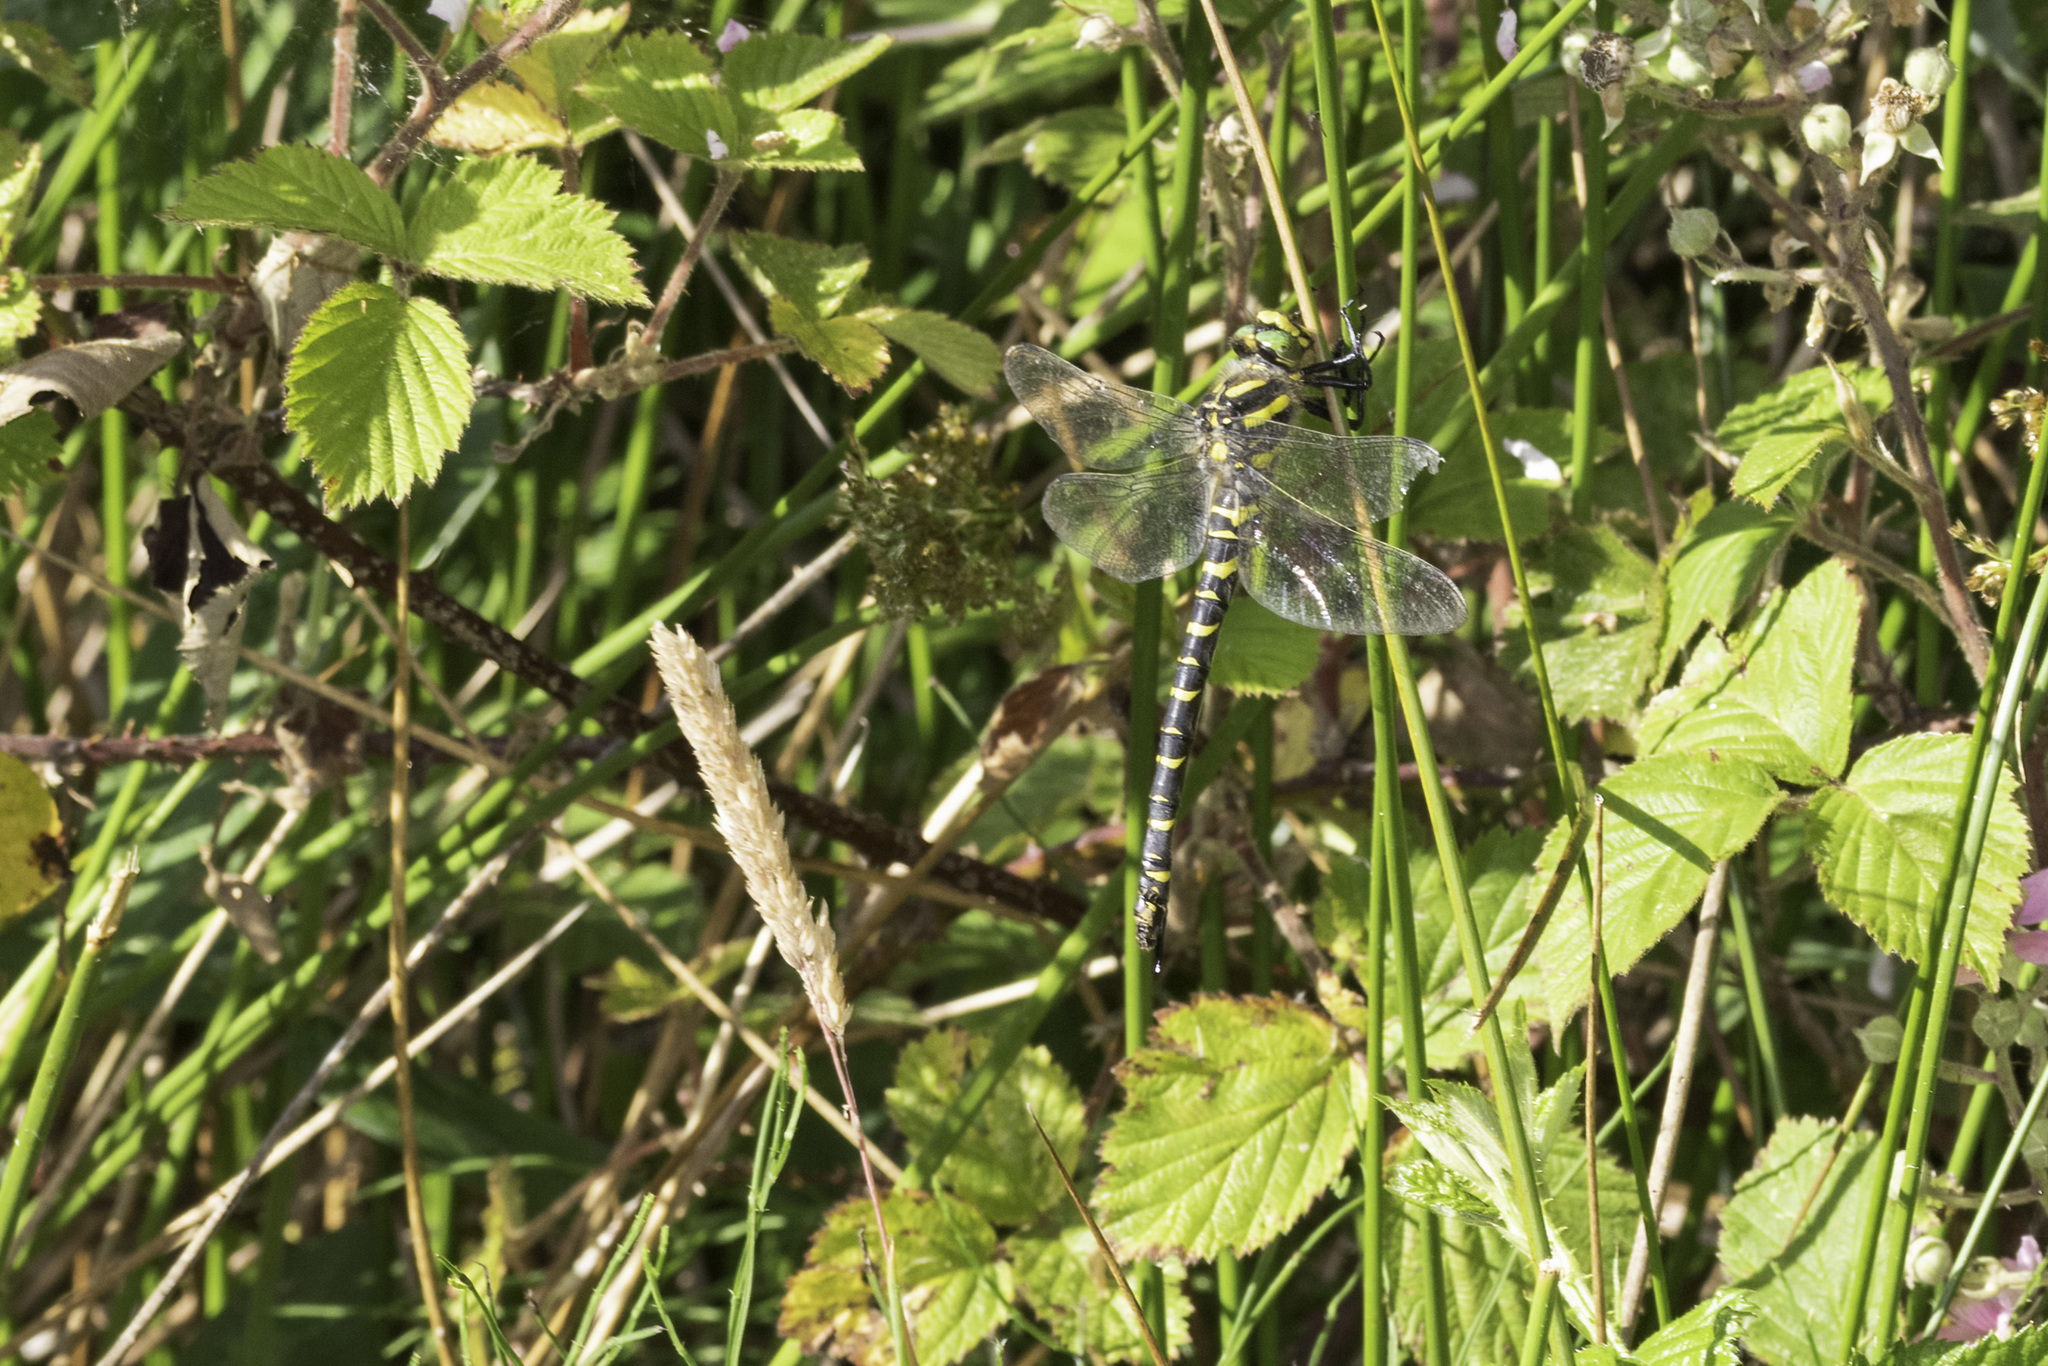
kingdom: Animalia
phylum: Arthropoda
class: Insecta
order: Odonata
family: Cordulegastridae
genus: Cordulegaster
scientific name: Cordulegaster boltonii
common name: Golden-ringed dragonfly
